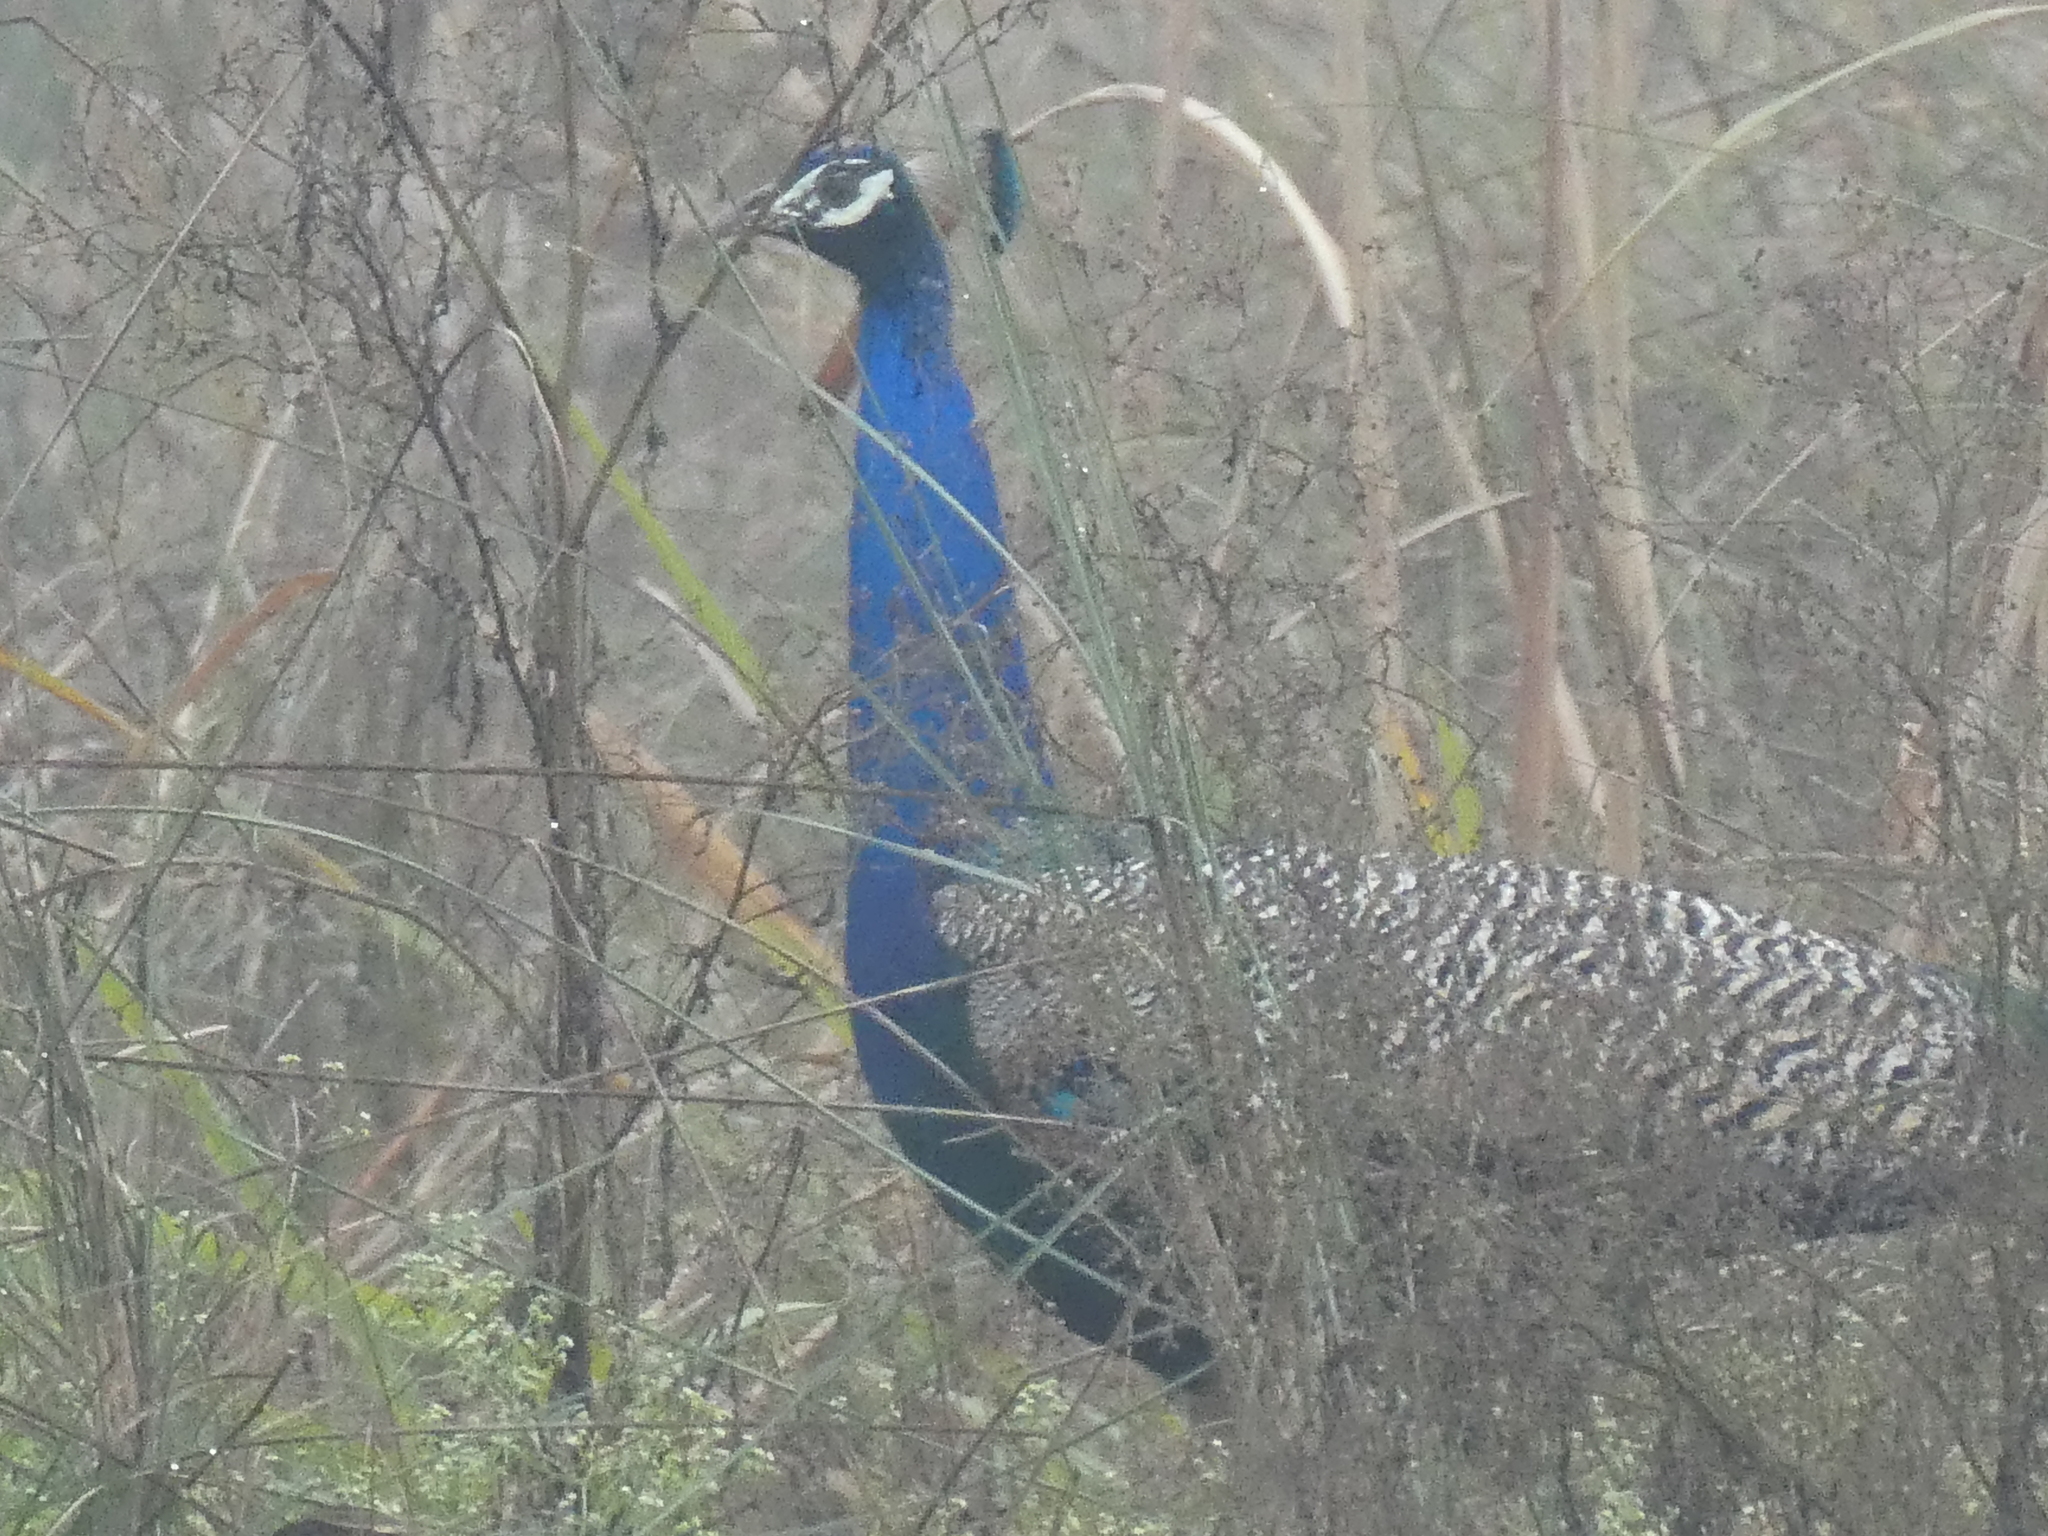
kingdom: Animalia
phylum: Chordata
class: Aves
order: Galliformes
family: Phasianidae
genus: Pavo
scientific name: Pavo cristatus
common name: Indian peafowl
